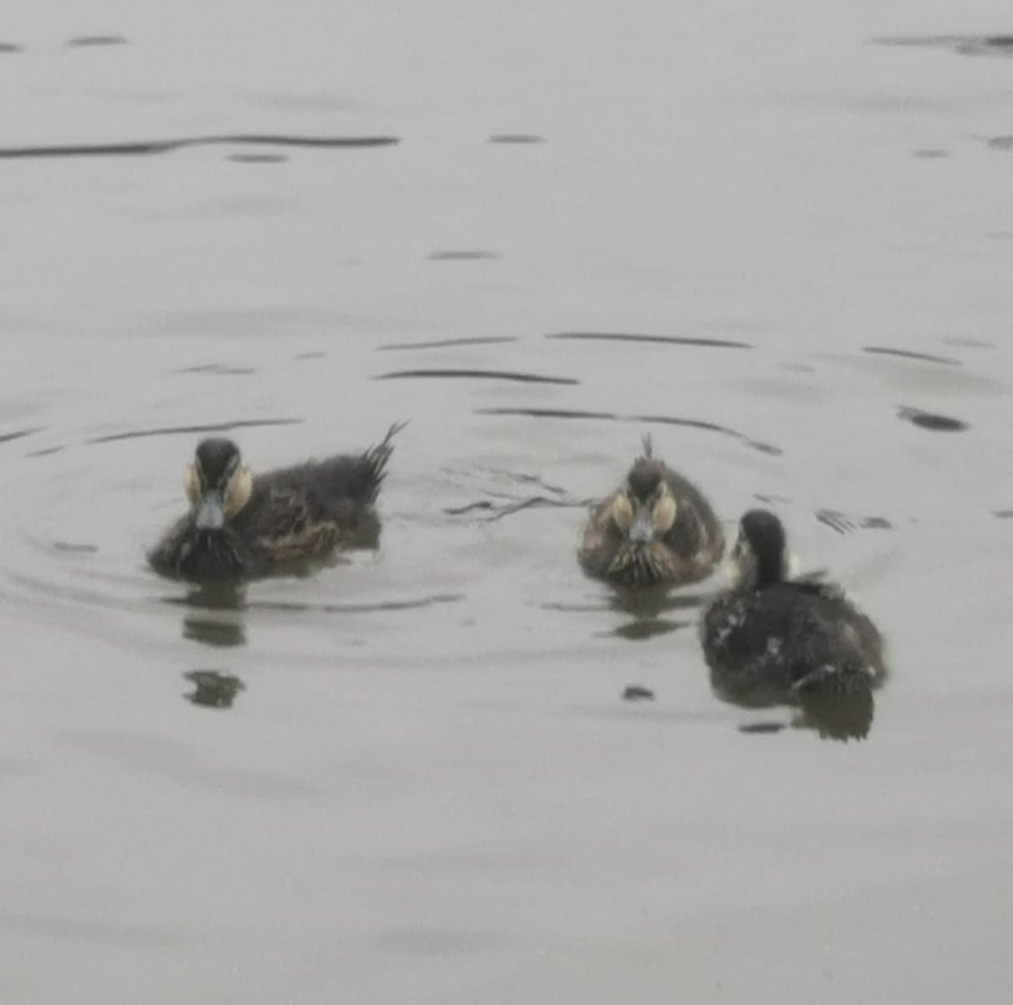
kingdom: Animalia
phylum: Chordata
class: Aves
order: Anseriformes
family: Anatidae
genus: Anas
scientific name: Anas platyrhynchos
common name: Mallard
